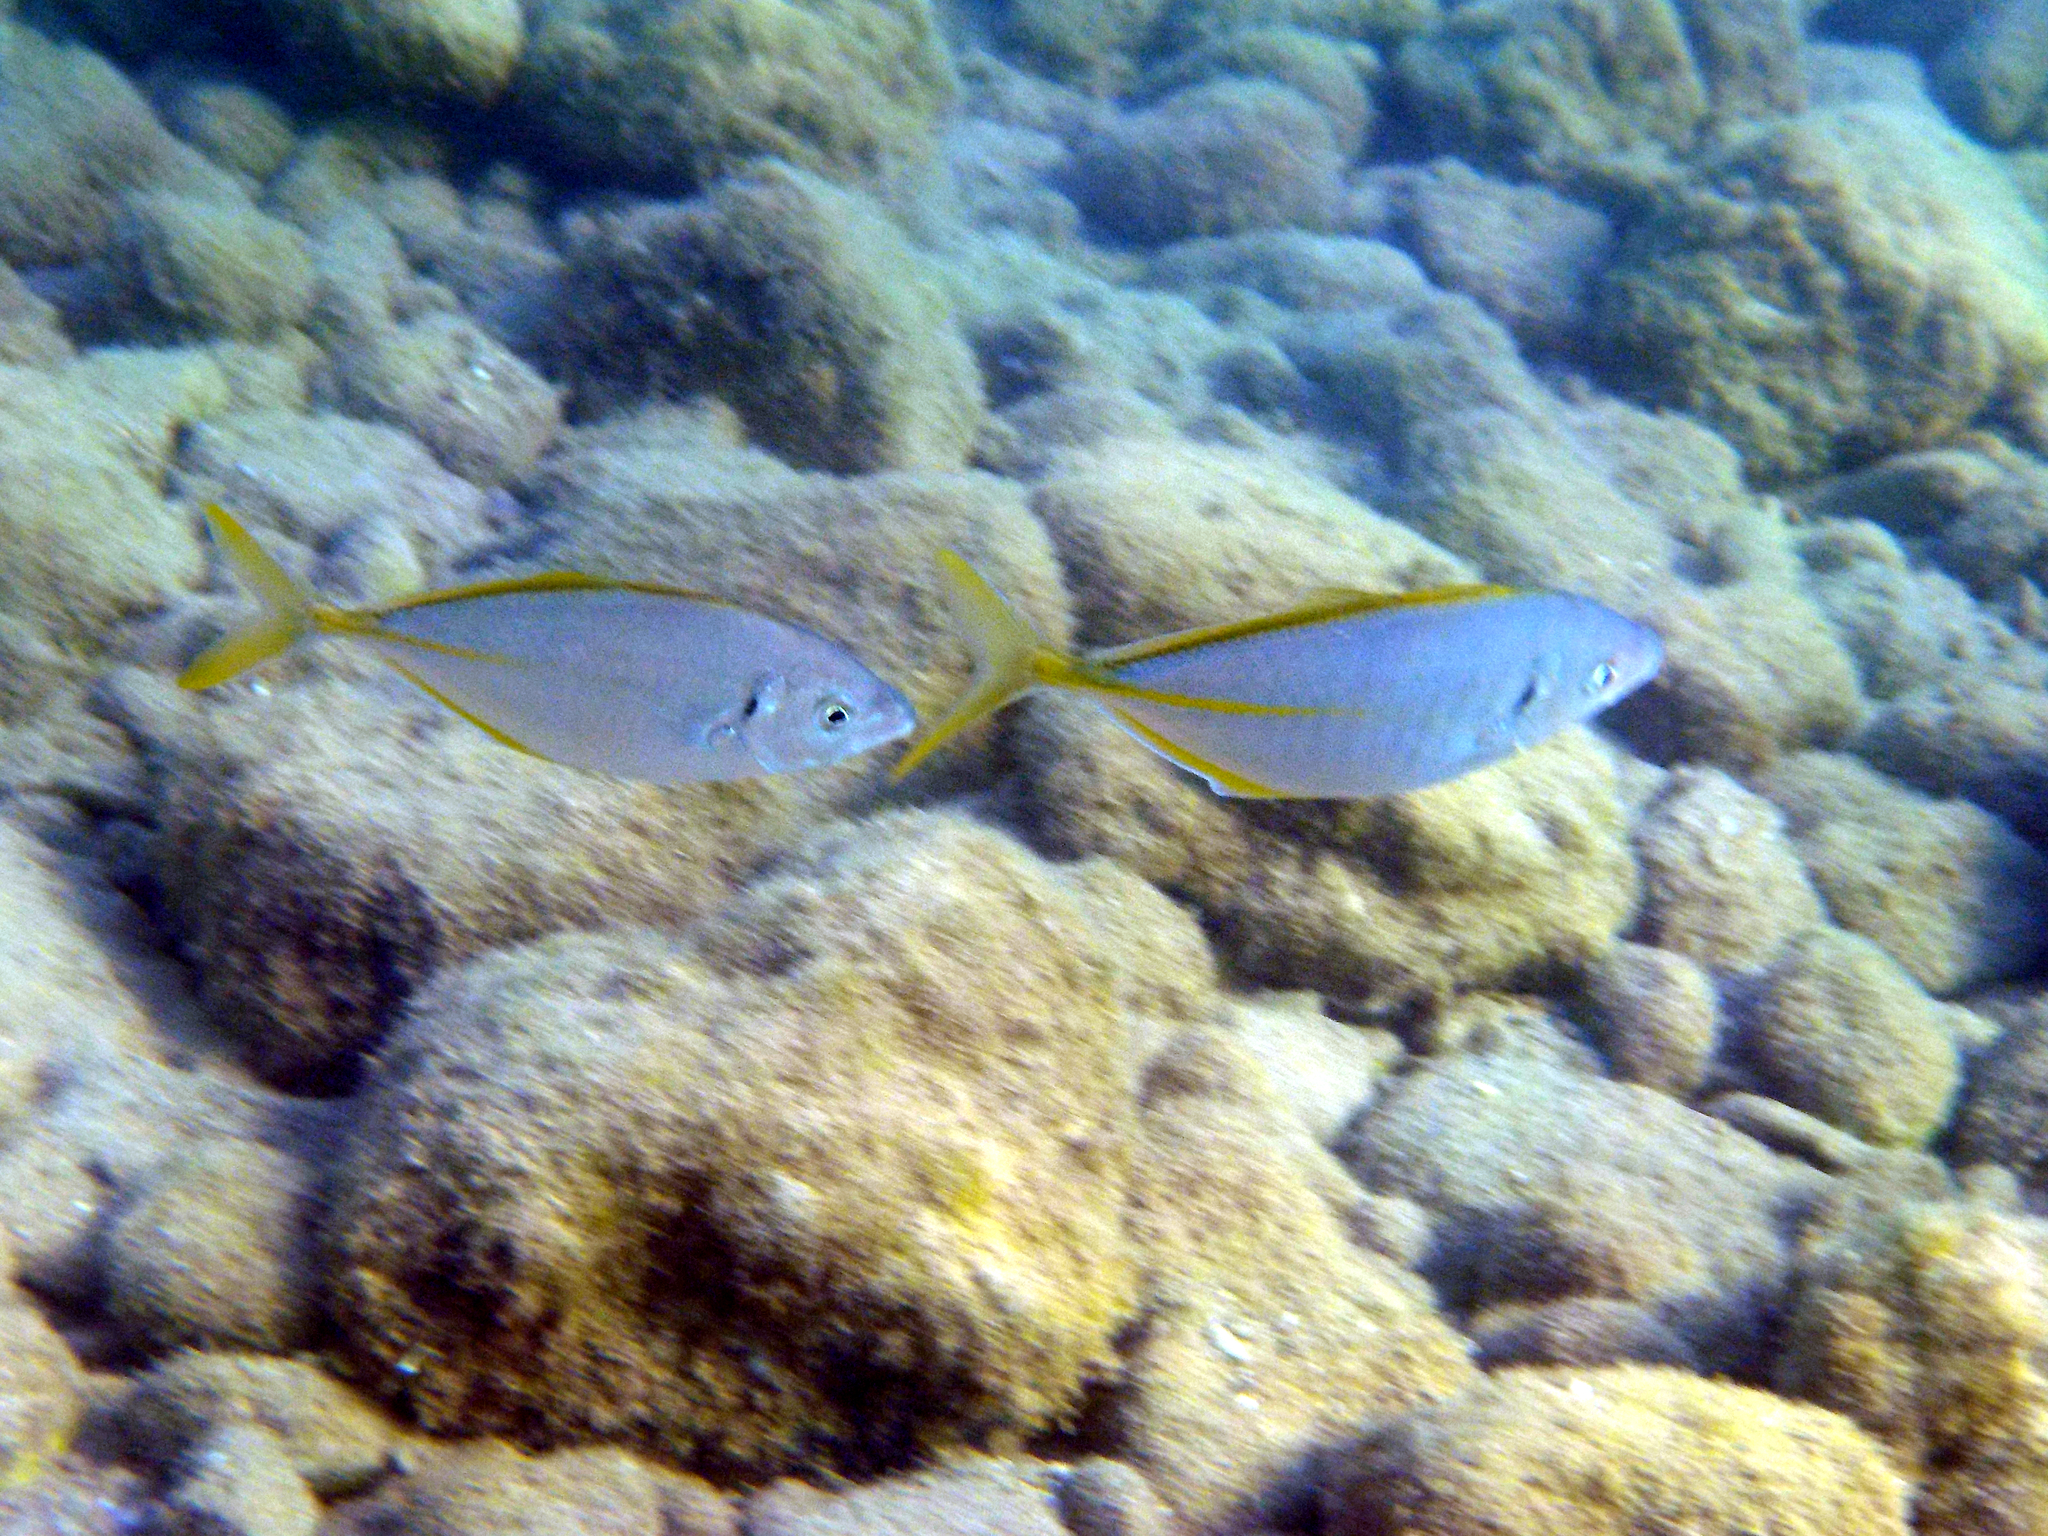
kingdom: Animalia
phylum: Chordata
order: Perciformes
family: Carangidae
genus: Pseudocaranx
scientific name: Pseudocaranx dentex
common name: White trevally
